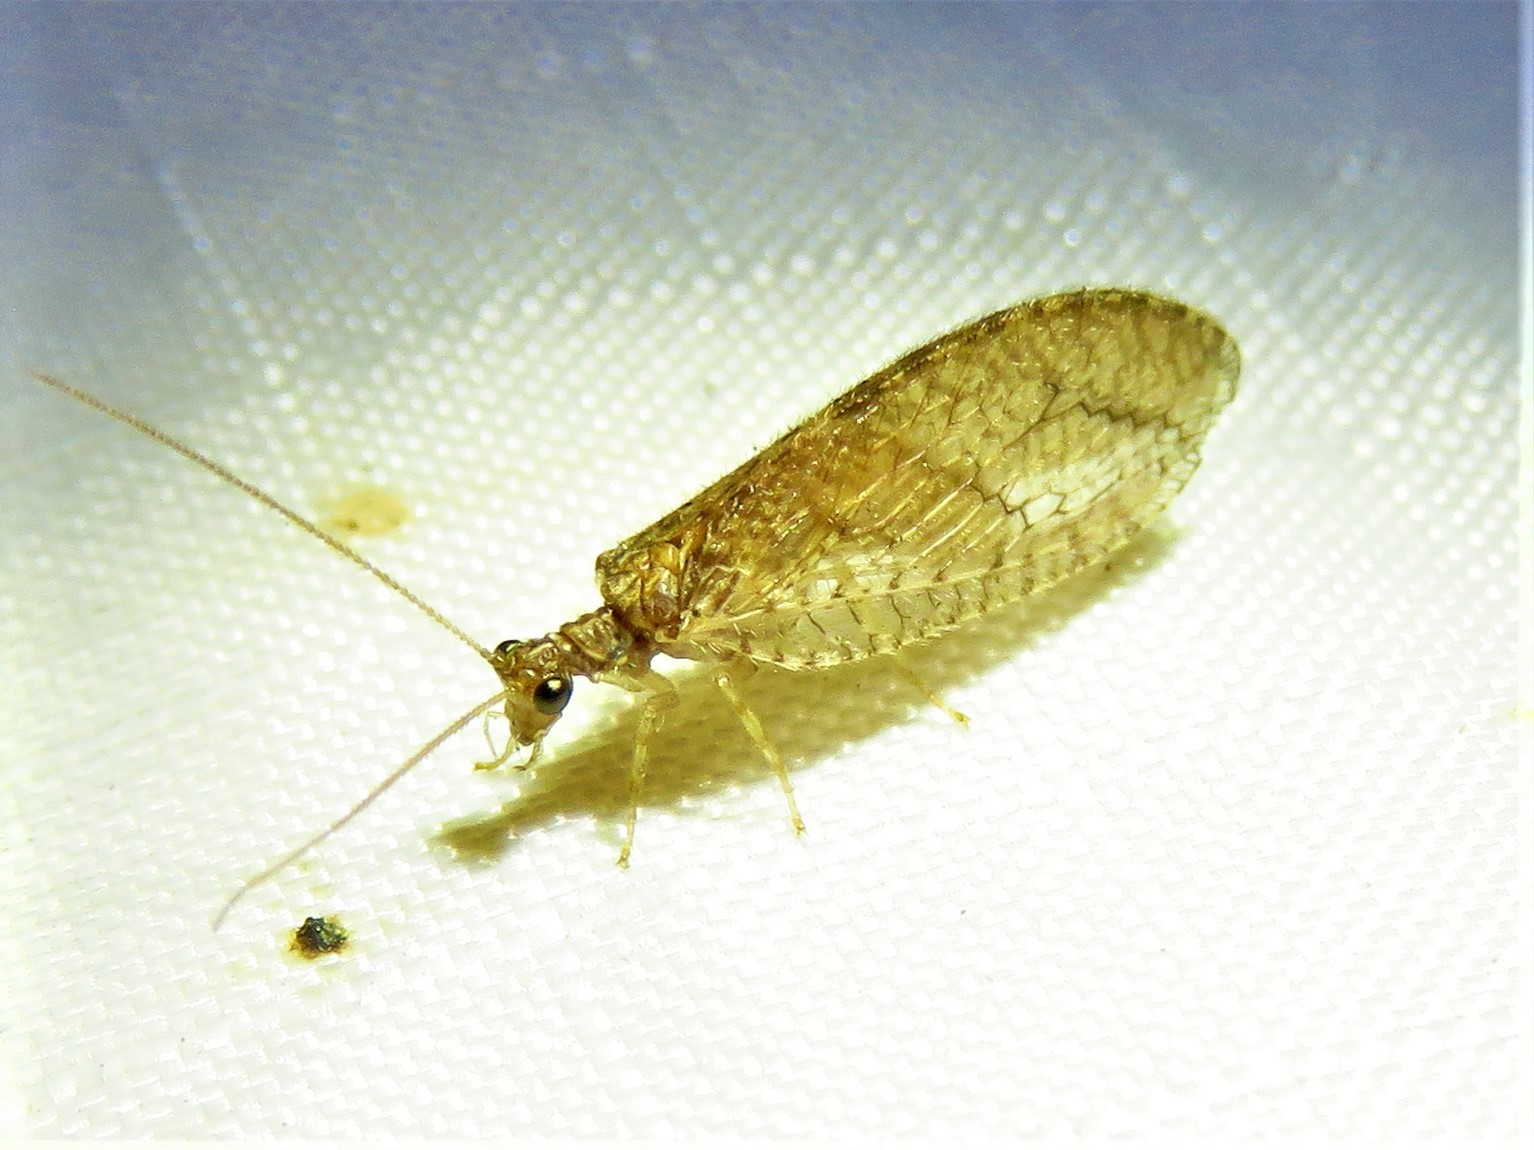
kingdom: Animalia
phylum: Arthropoda
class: Insecta
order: Neuroptera
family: Hemerobiidae
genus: Micromus
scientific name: Micromus posticus
